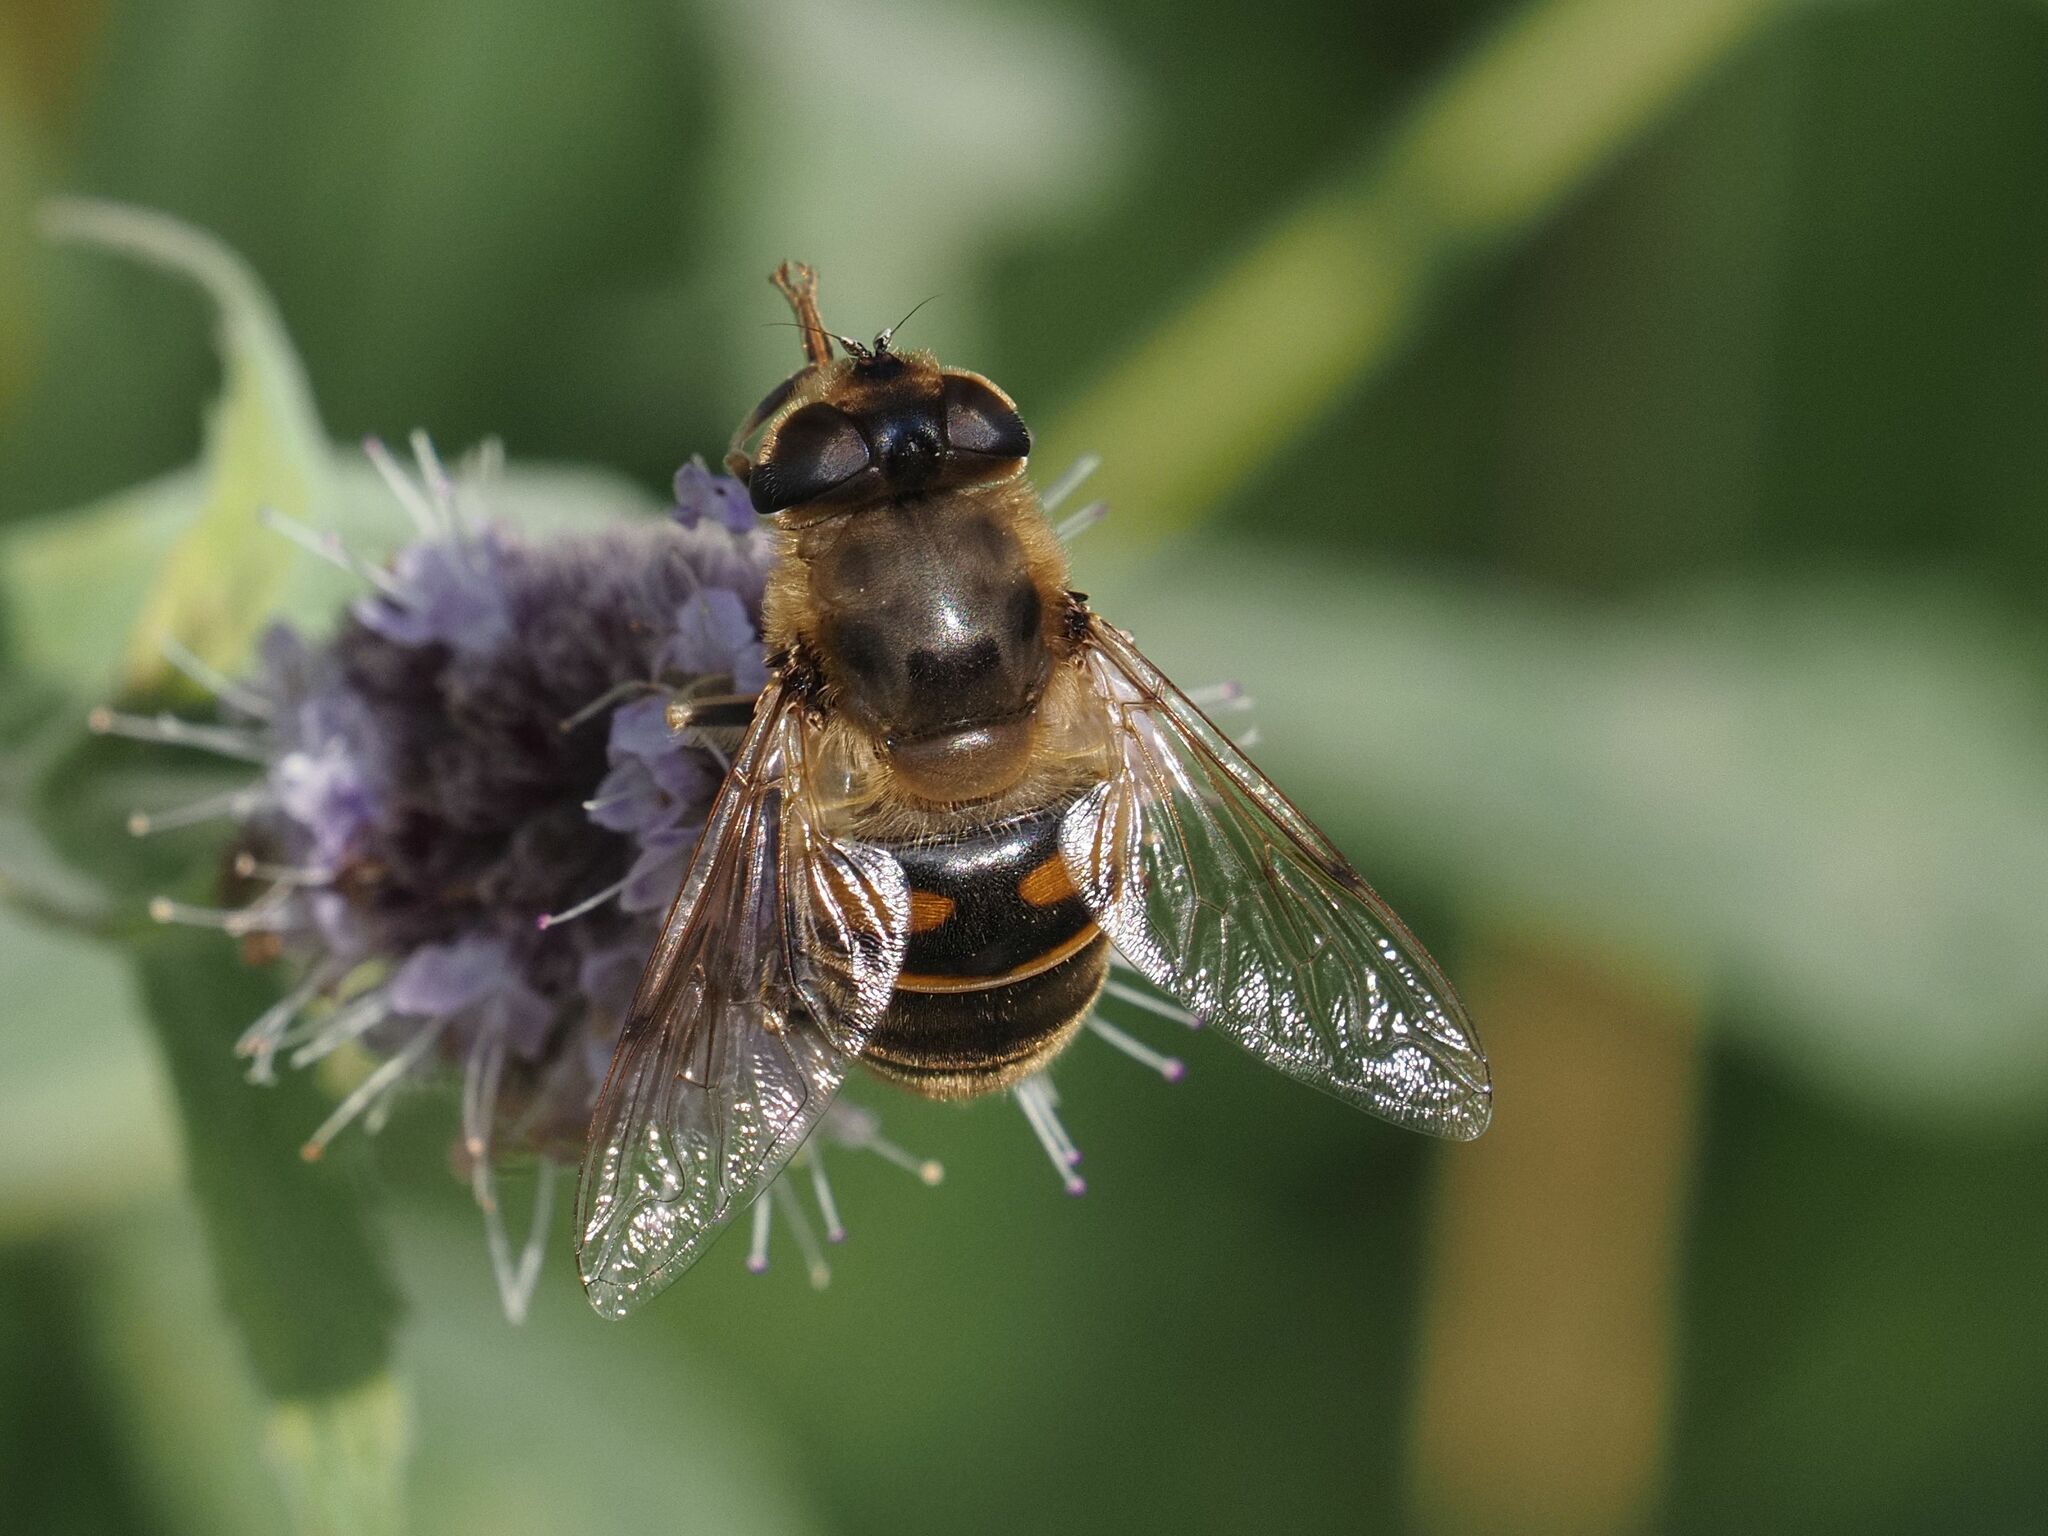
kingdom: Animalia
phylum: Arthropoda
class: Insecta
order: Diptera
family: Syrphidae
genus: Eristalis
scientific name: Eristalis tenax
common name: Drone fly
